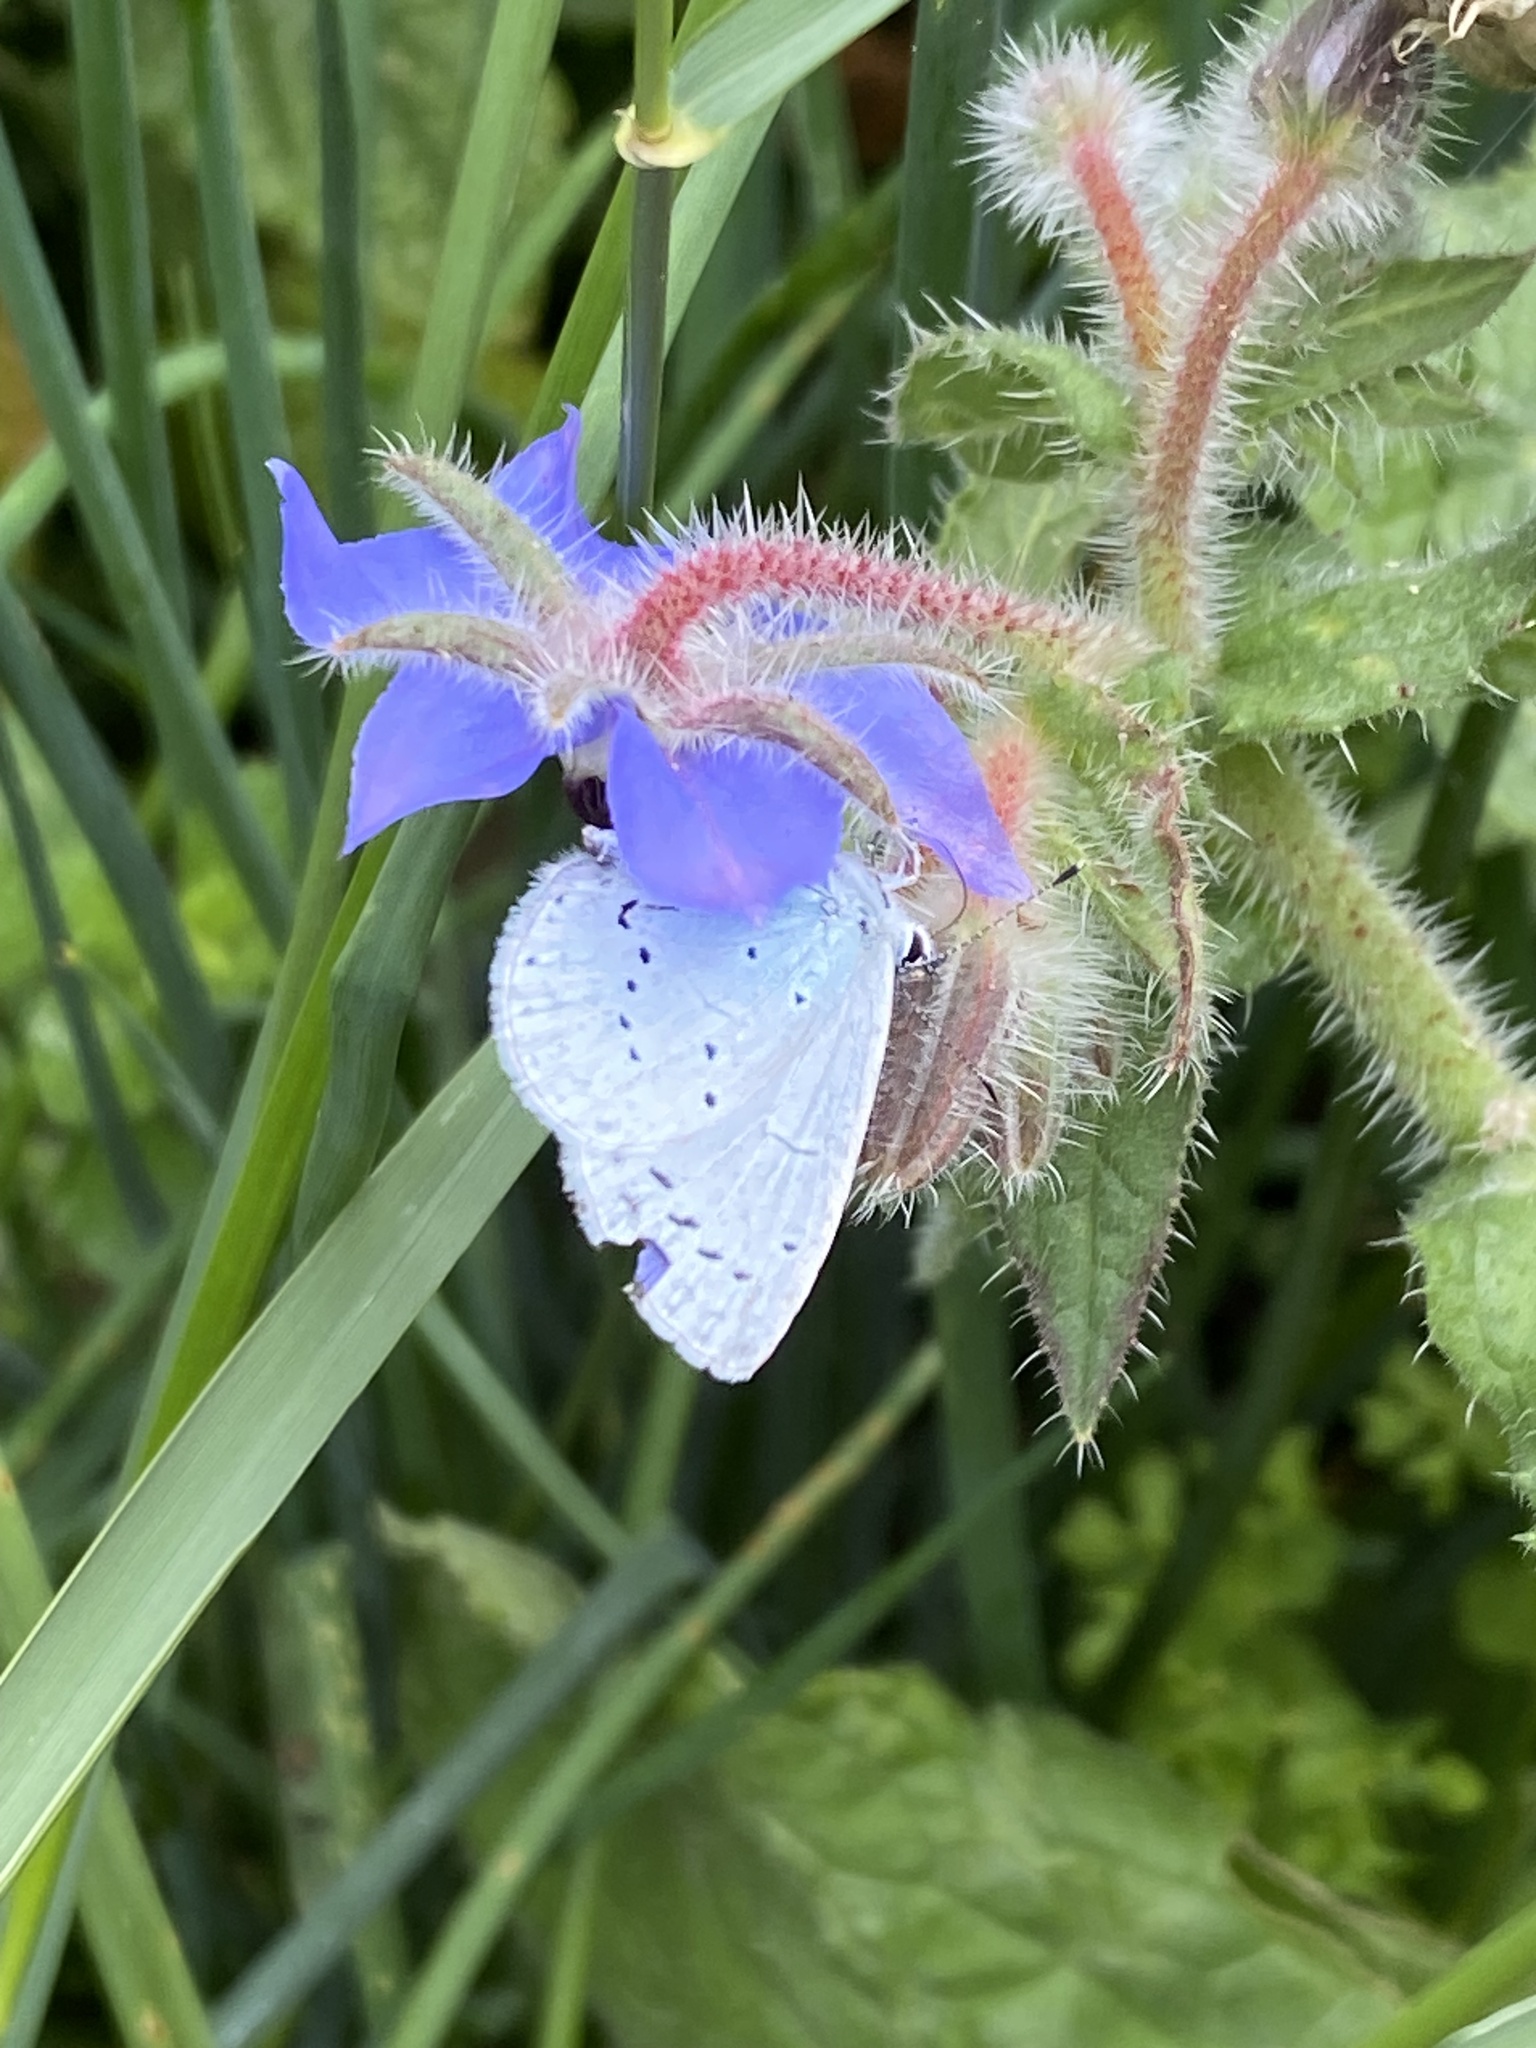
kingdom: Animalia
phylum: Arthropoda
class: Insecta
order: Lepidoptera
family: Lycaenidae
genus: Celastrina
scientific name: Celastrina argiolus
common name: Holly blue
